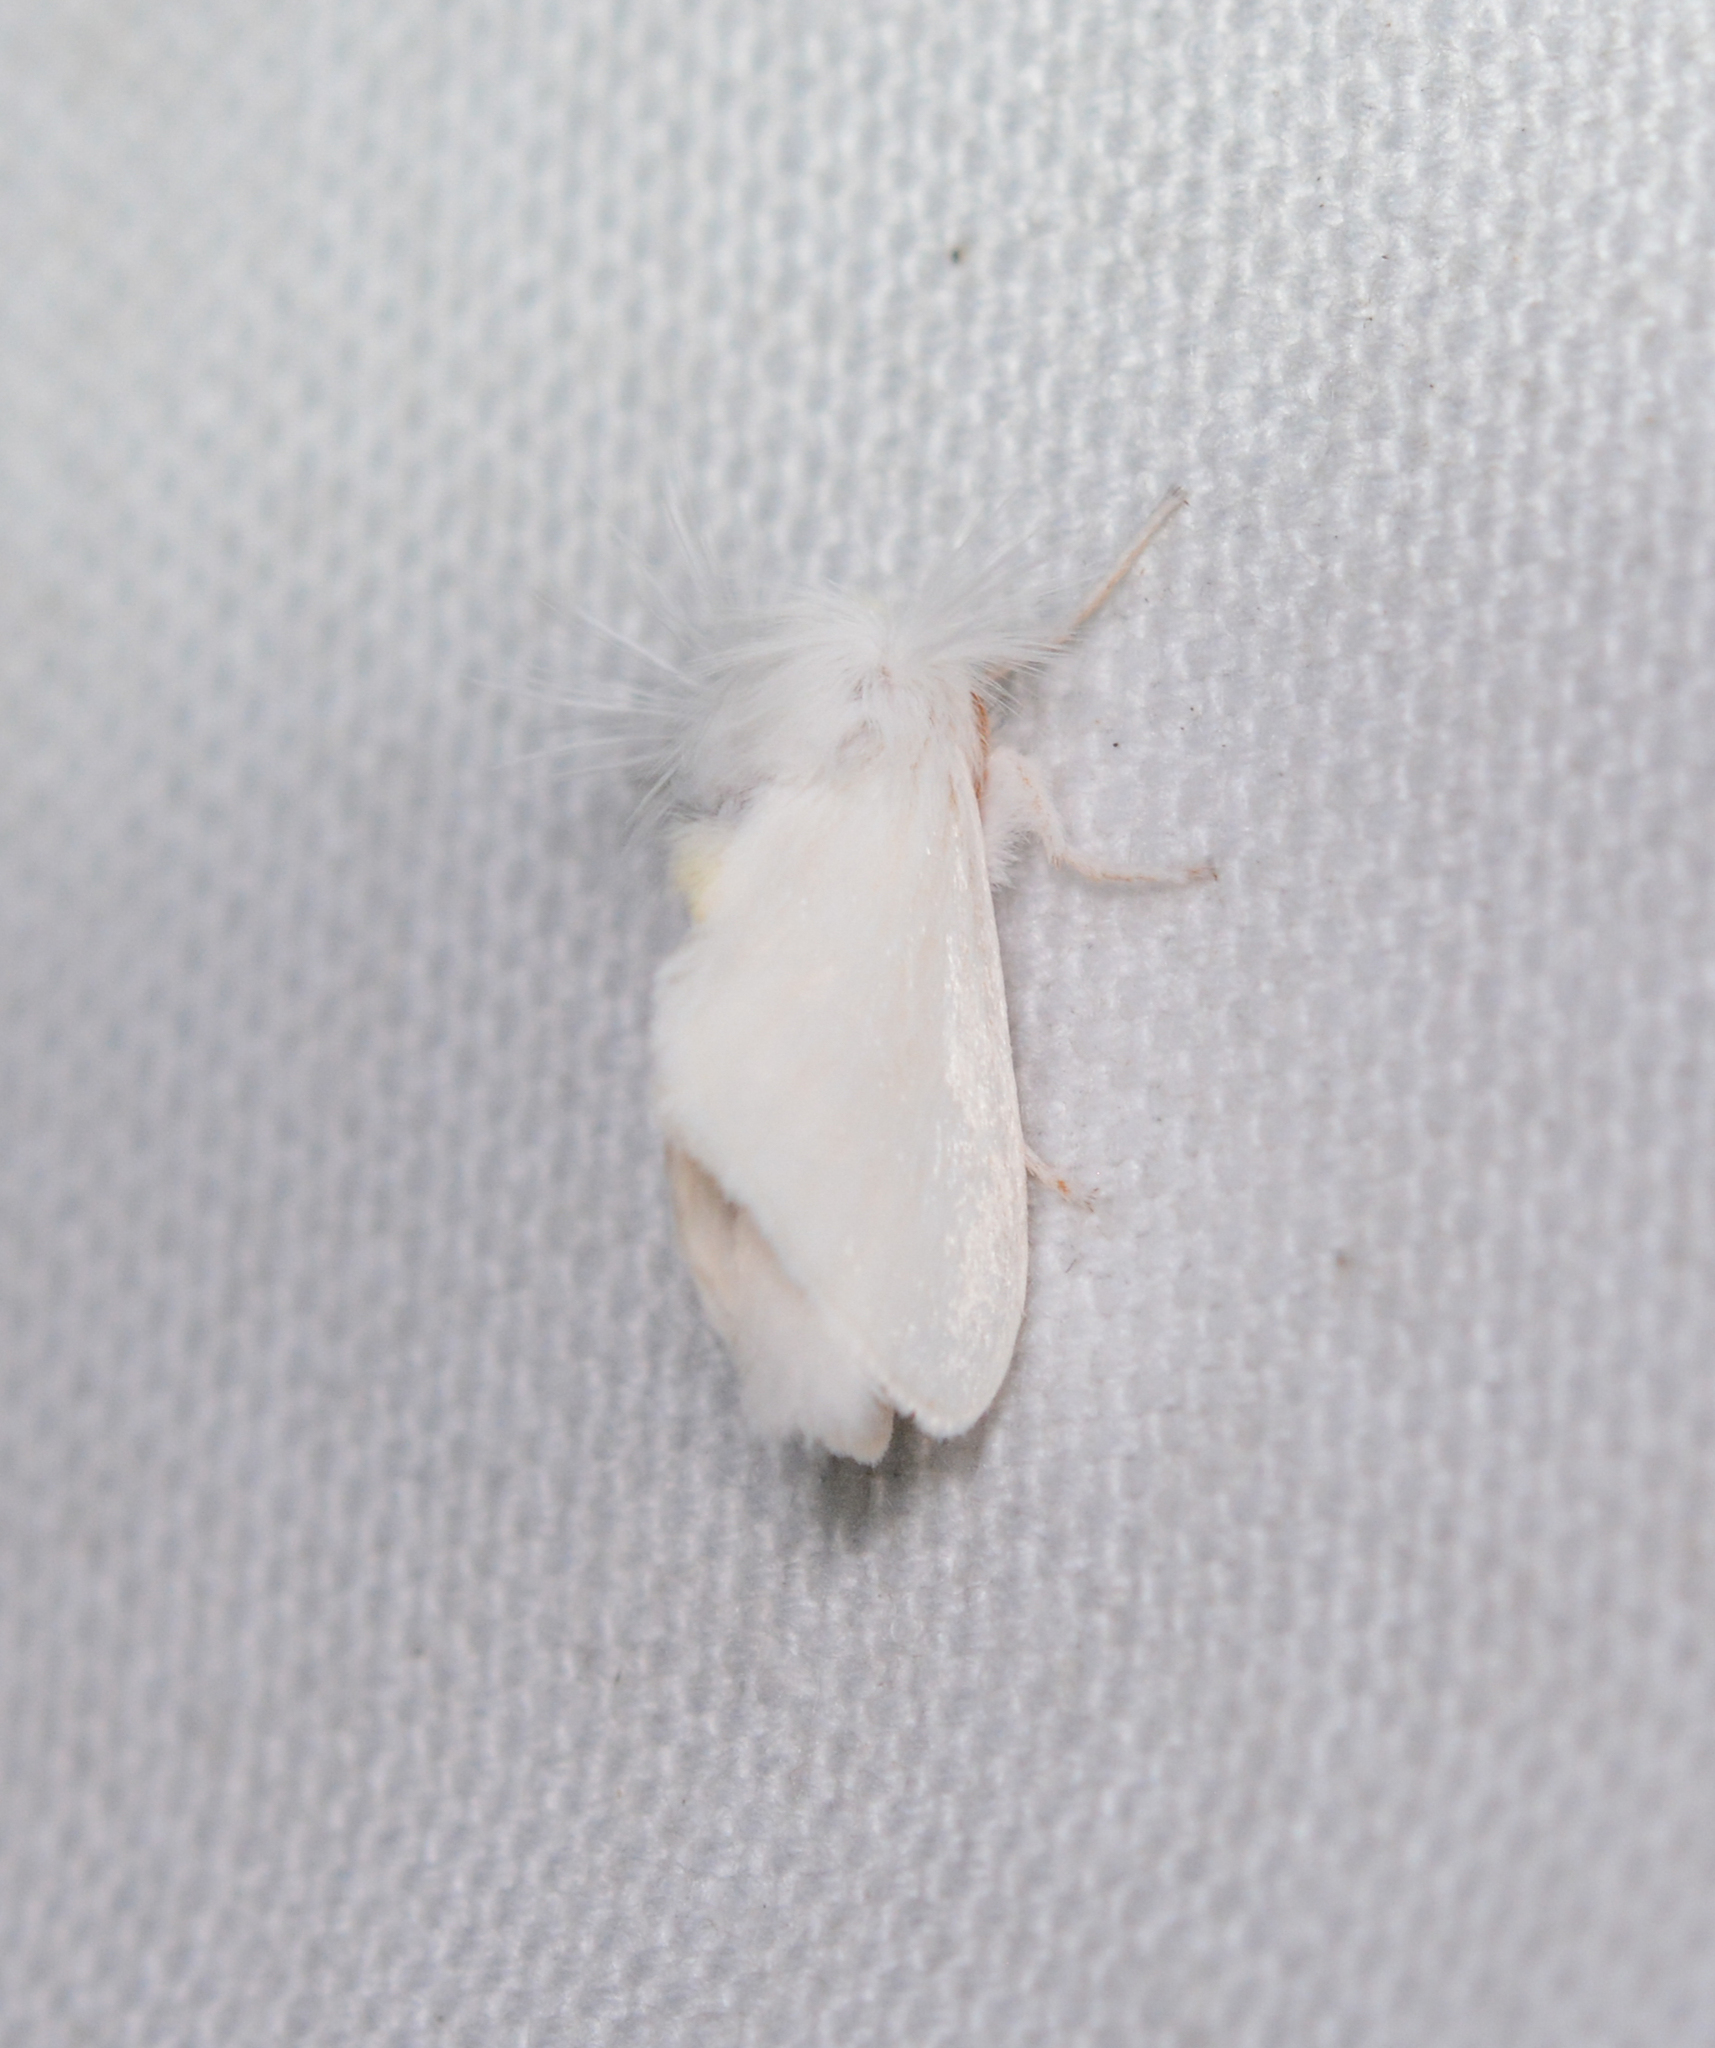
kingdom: Animalia
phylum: Arthropoda
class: Insecta
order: Lepidoptera
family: Megalopygidae
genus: Norape
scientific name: Norape cretata
